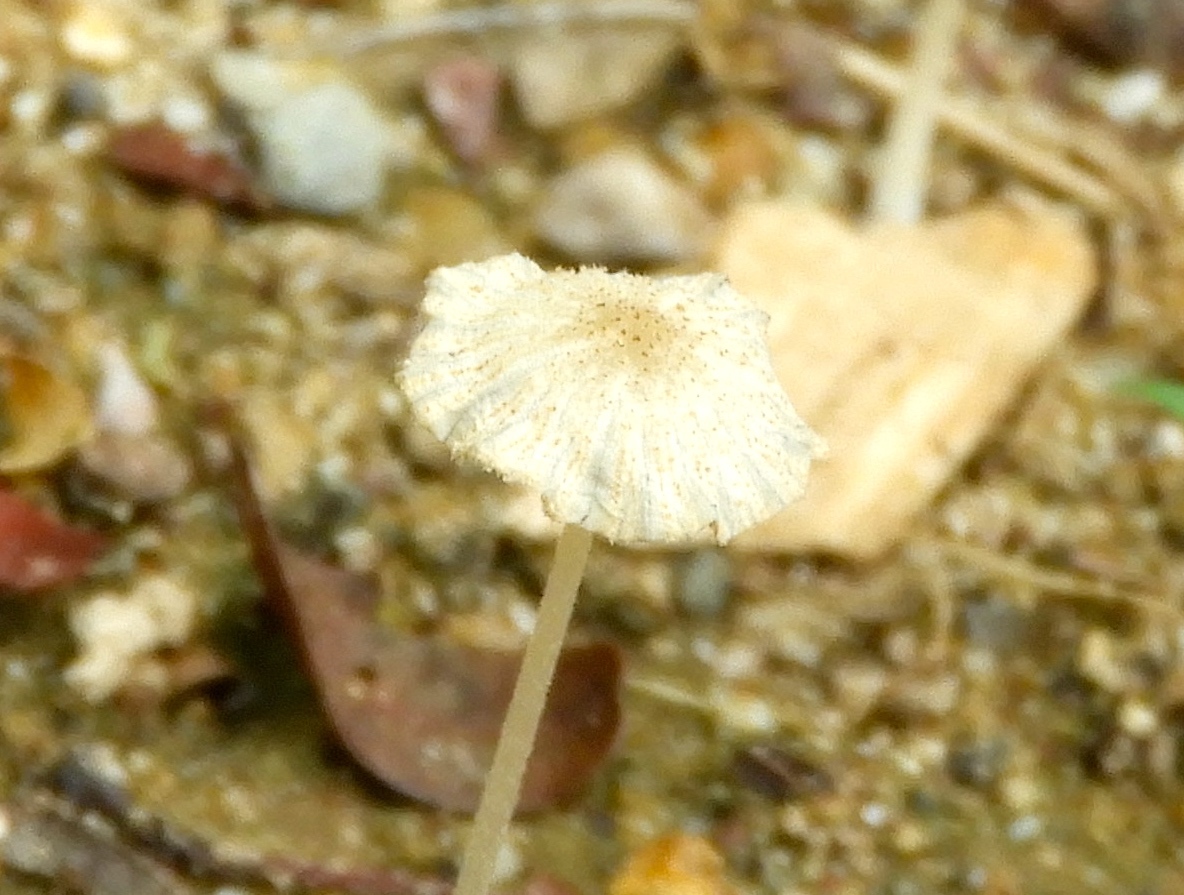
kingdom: Fungi
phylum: Basidiomycota
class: Agaricomycetes
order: Agaricales
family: Psathyrellaceae
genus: Parasola
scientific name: Parasola
